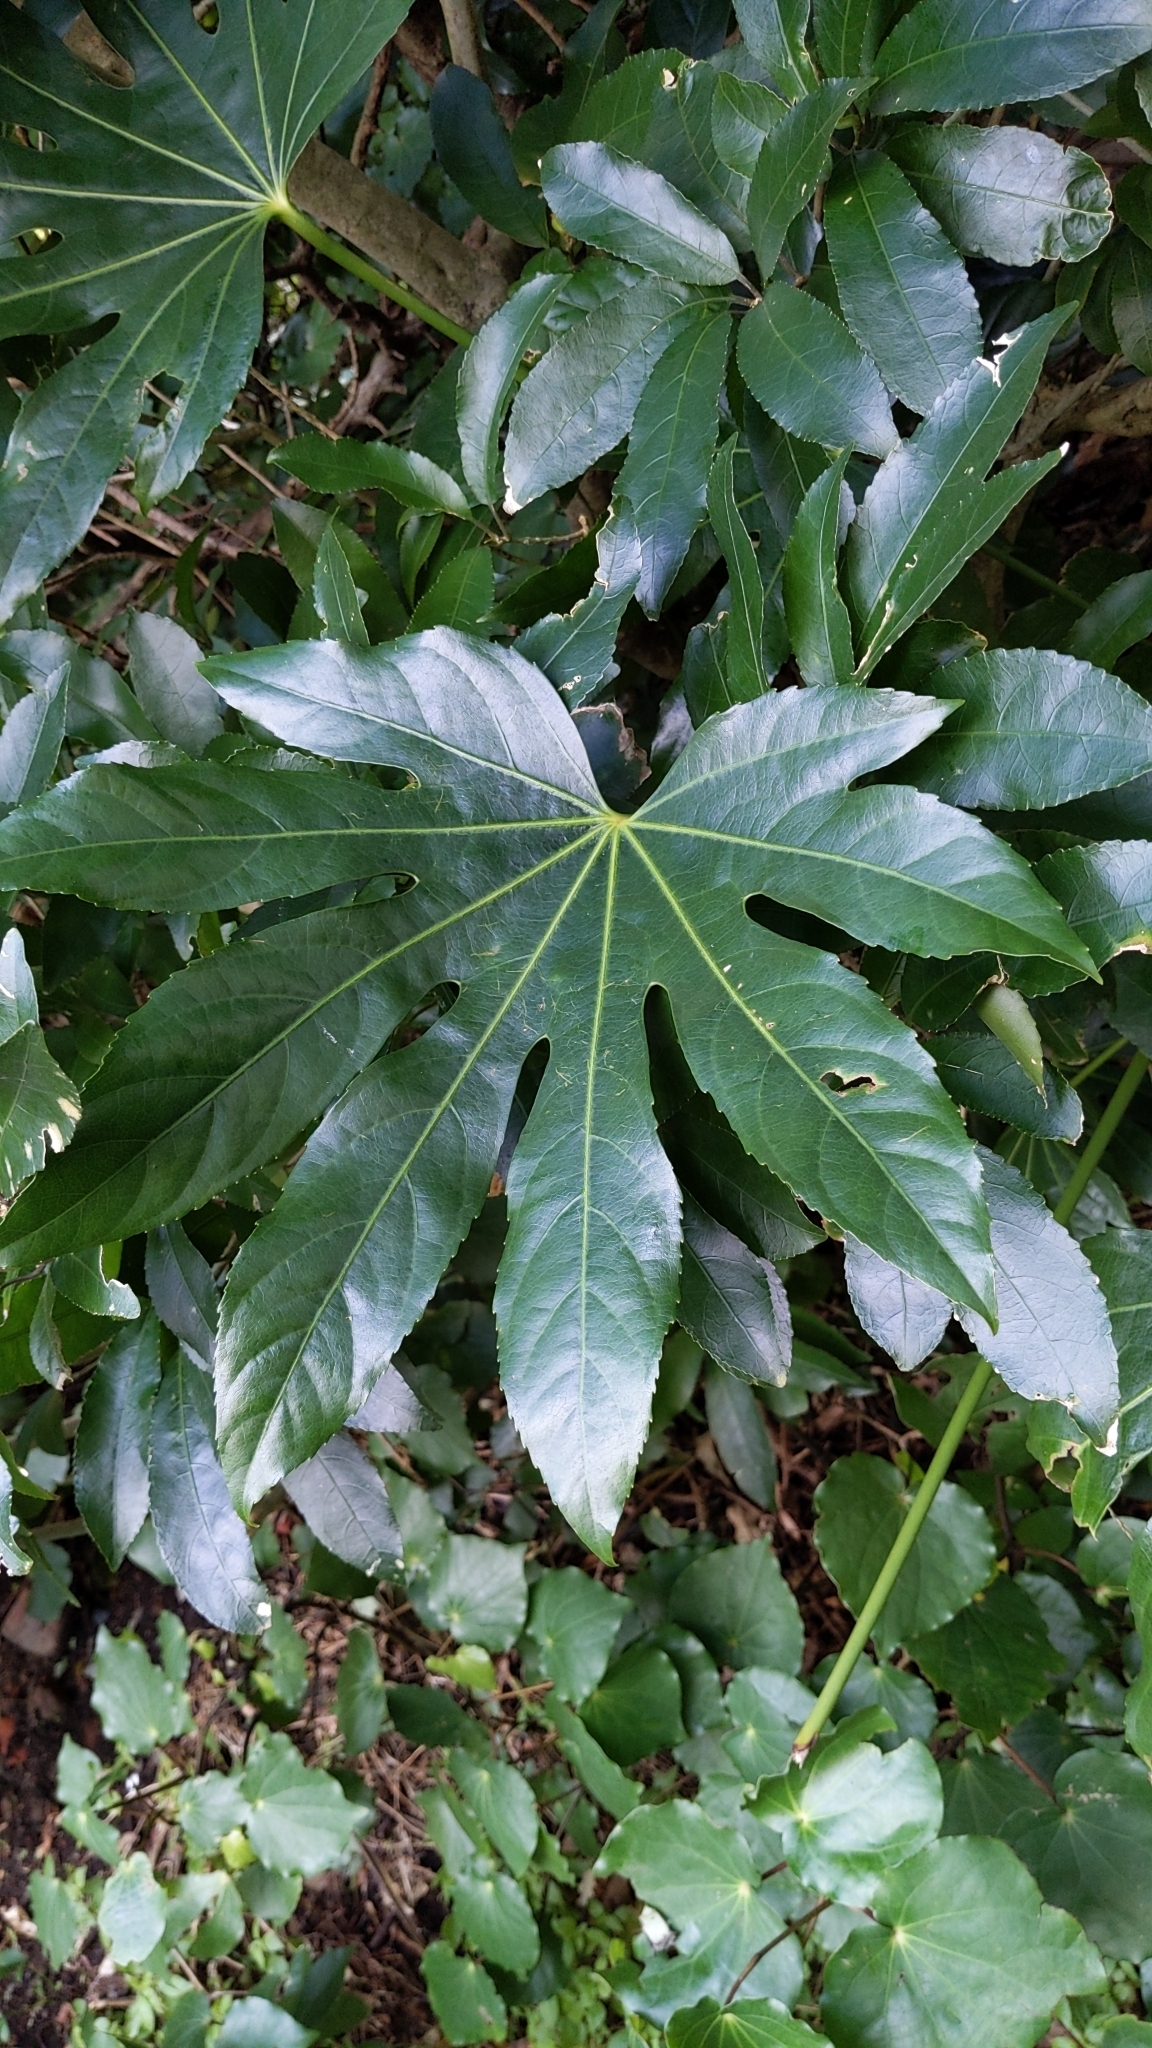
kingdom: Plantae
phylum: Tracheophyta
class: Magnoliopsida
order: Apiales
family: Araliaceae
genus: Fatsia
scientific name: Fatsia japonica
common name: Fatsia
